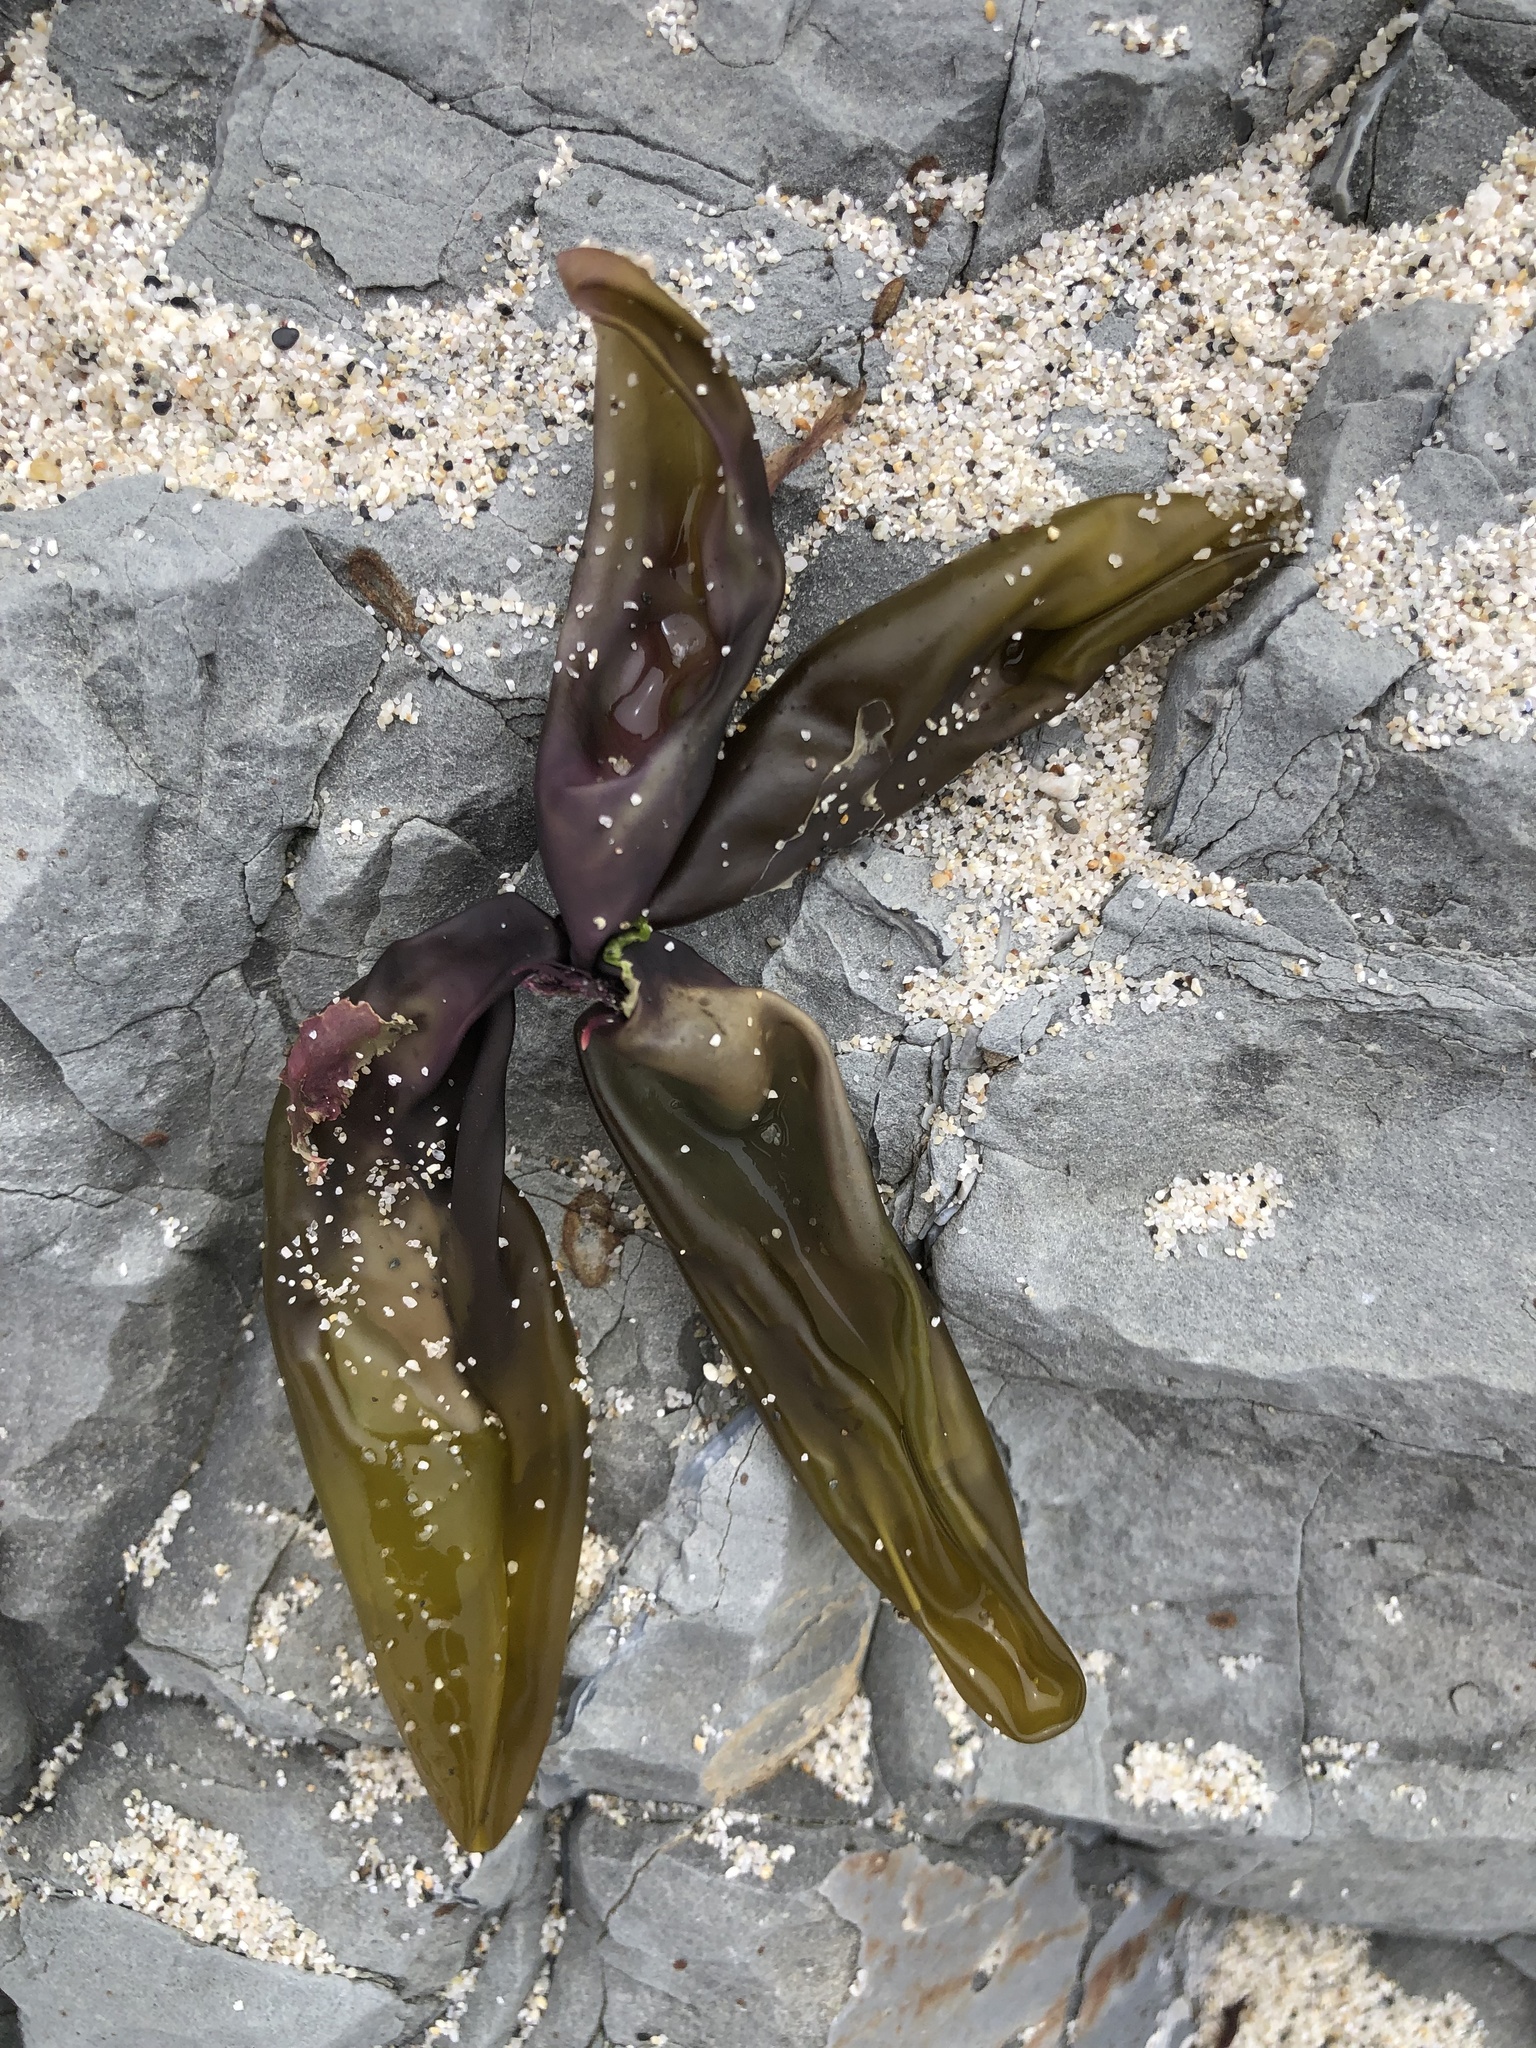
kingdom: Plantae
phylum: Rhodophyta
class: Florideophyceae
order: Palmariales
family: Palmariaceae
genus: Halosaccion
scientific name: Halosaccion glandiforme
